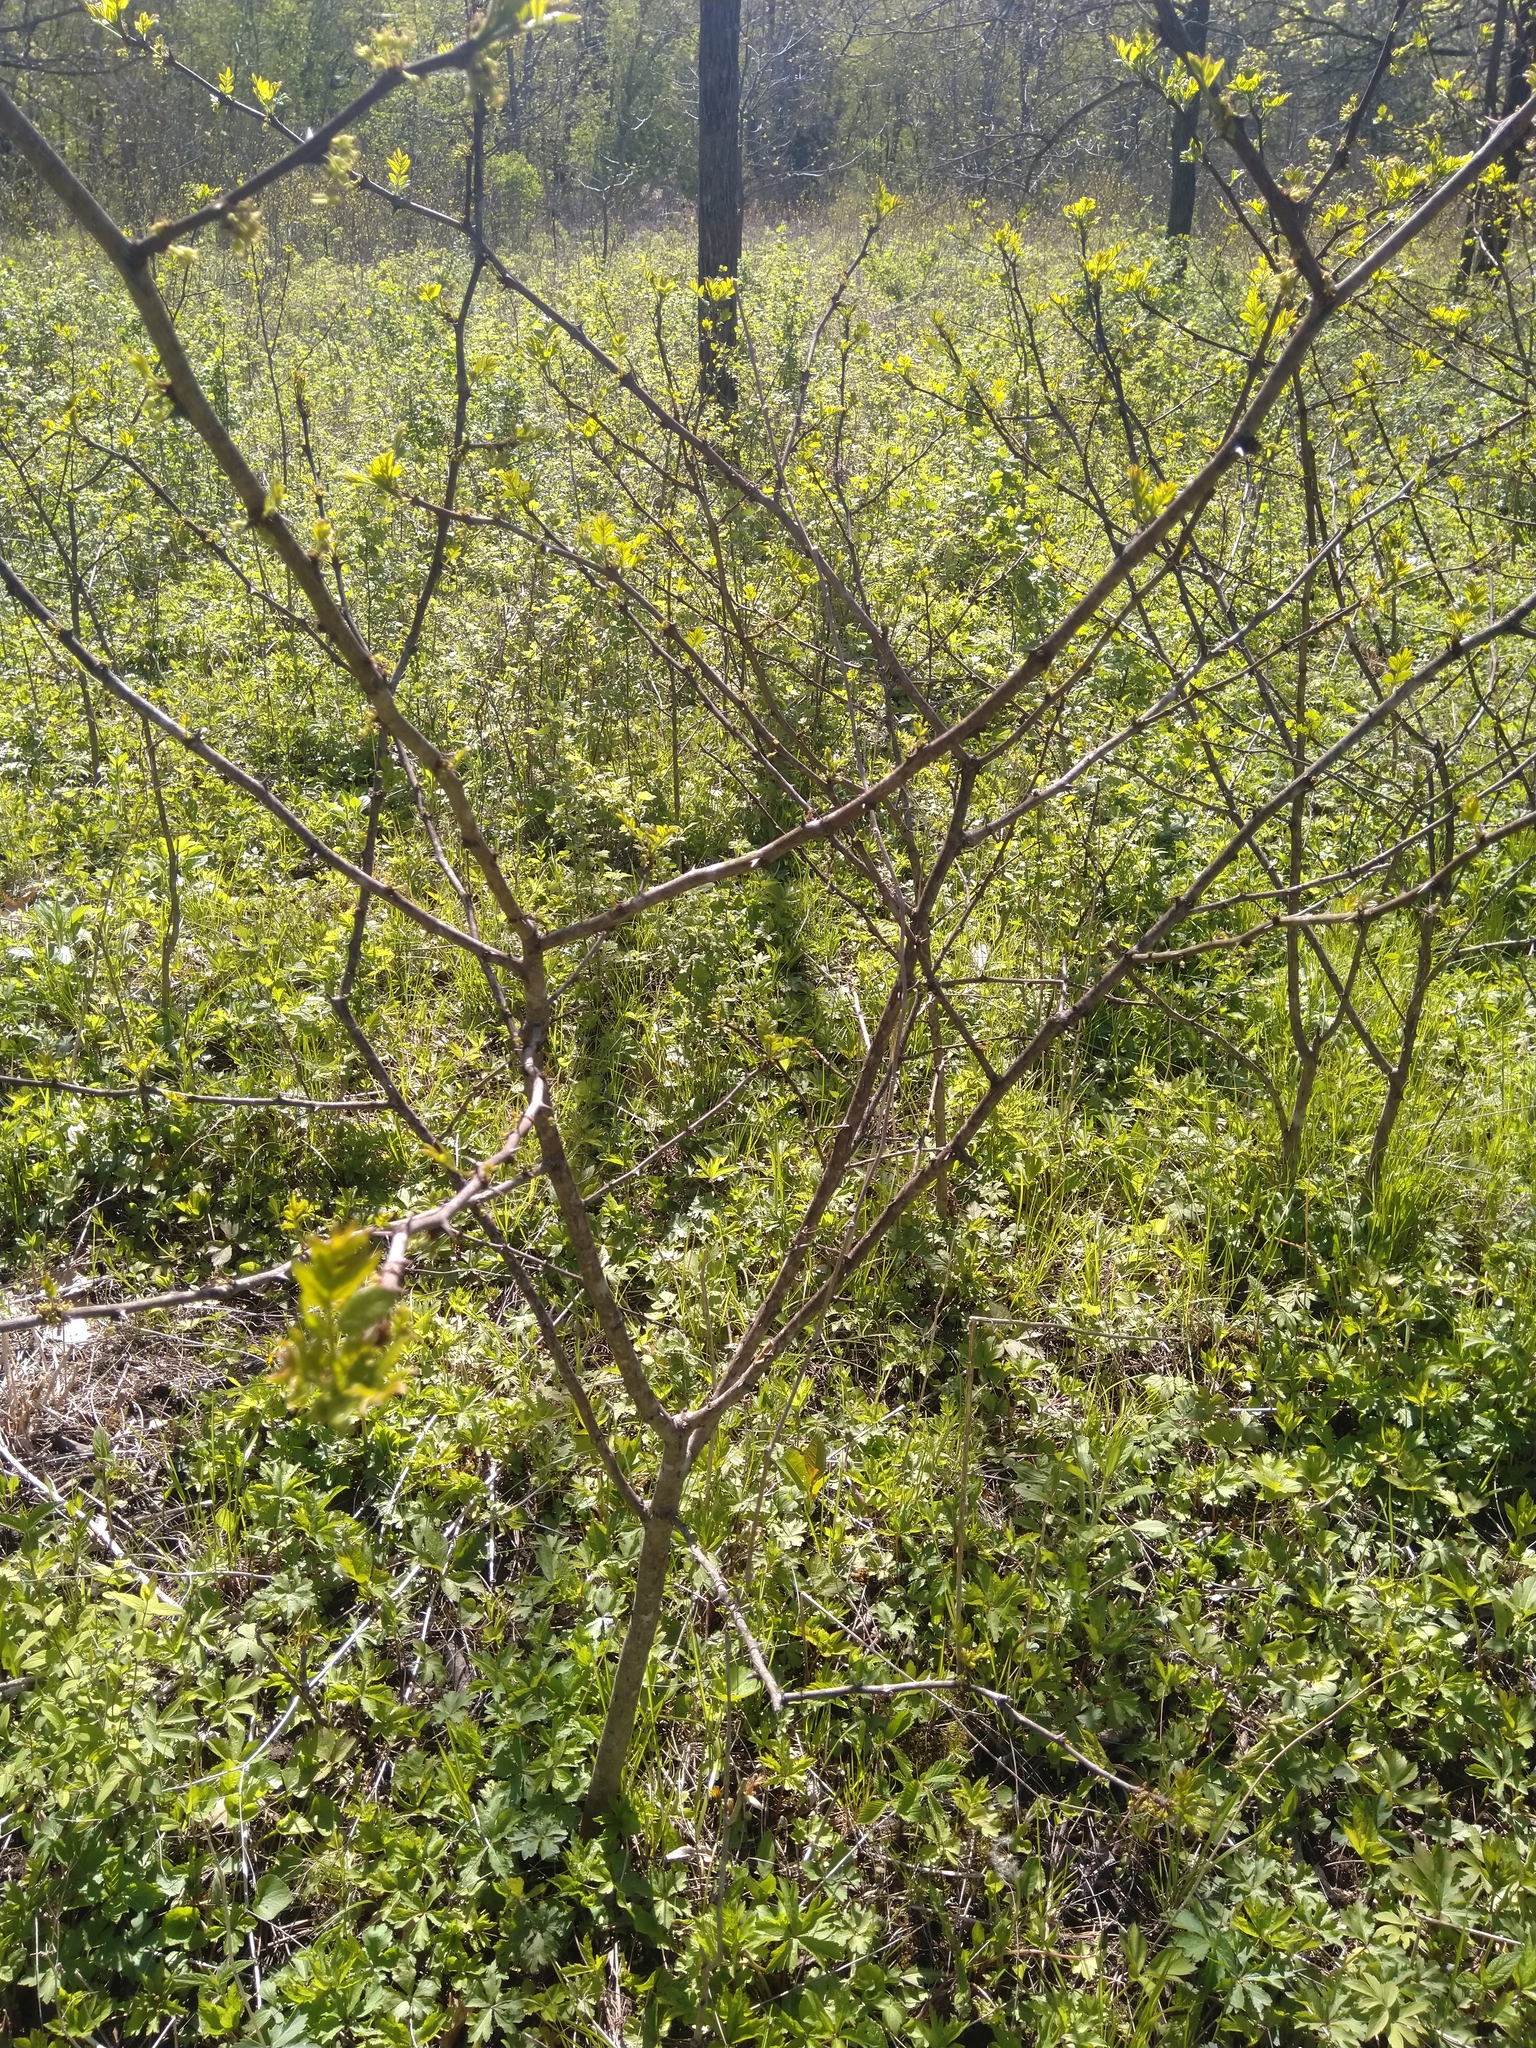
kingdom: Plantae
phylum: Tracheophyta
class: Magnoliopsida
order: Sapindales
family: Rutaceae
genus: Zanthoxylum
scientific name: Zanthoxylum americanum
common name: Northern prickly-ash
